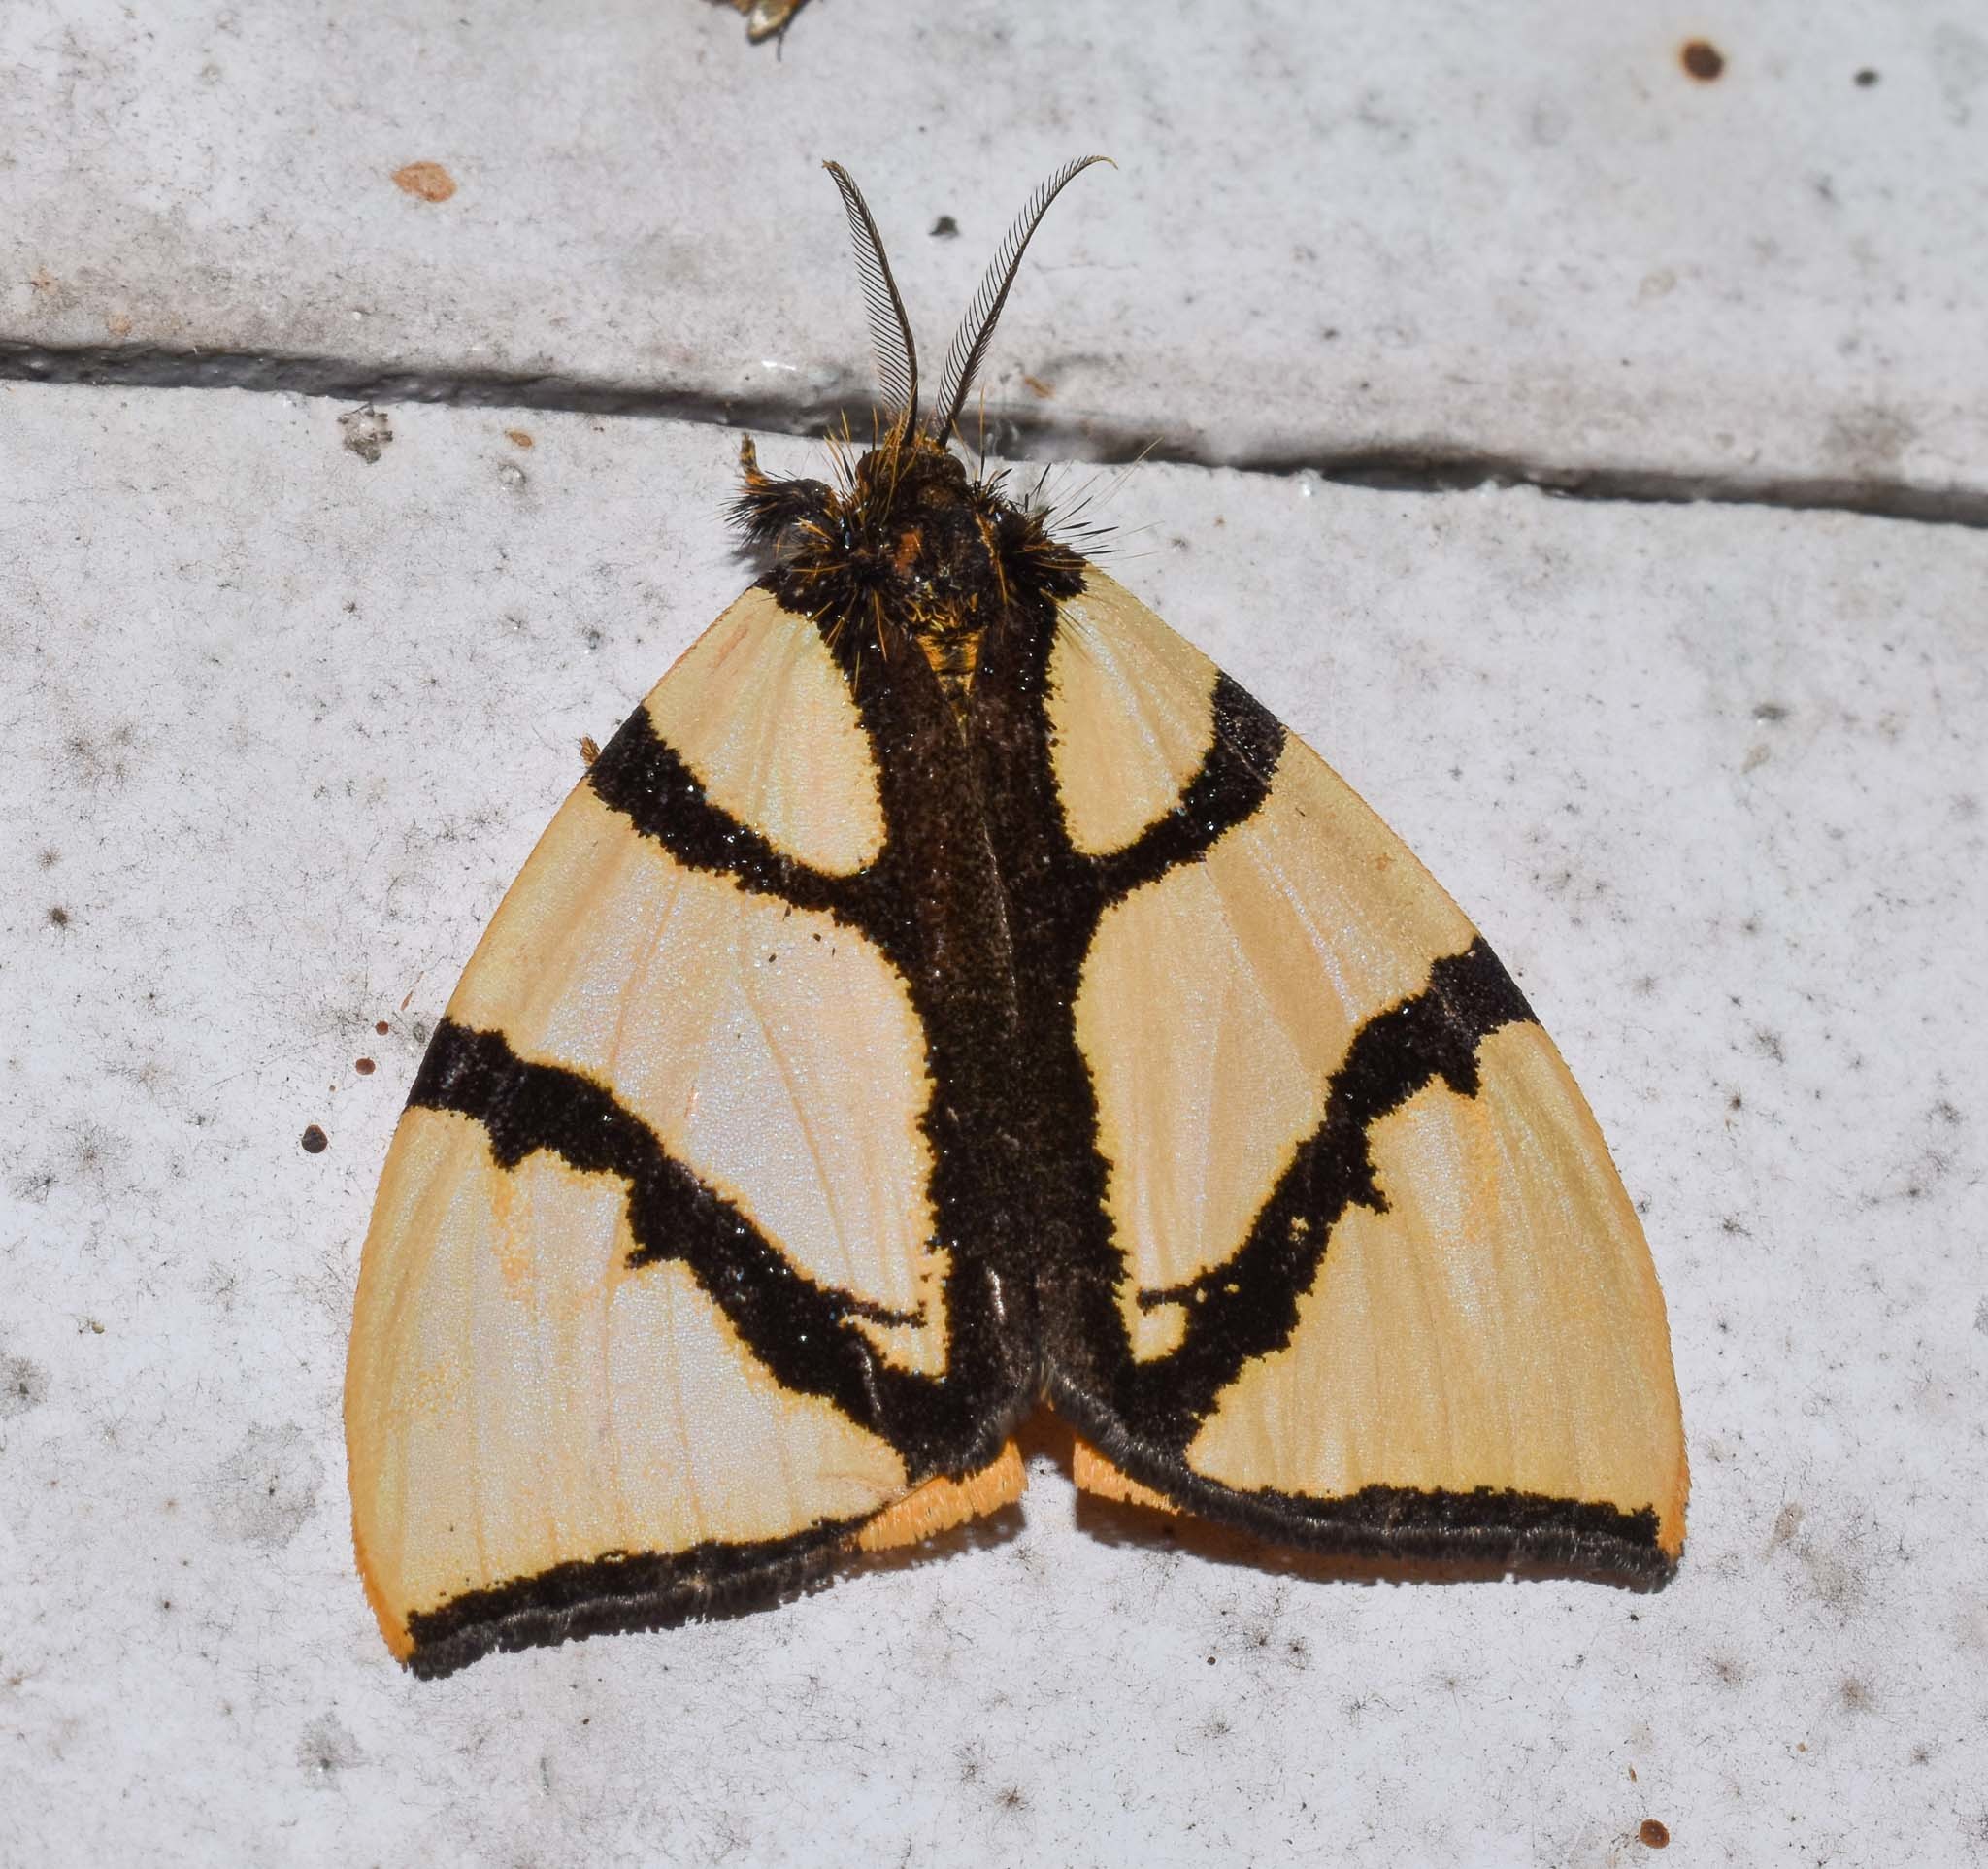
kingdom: Animalia
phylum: Arthropoda
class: Insecta
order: Lepidoptera
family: Erebidae
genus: Numenes
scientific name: Numenes siletti
